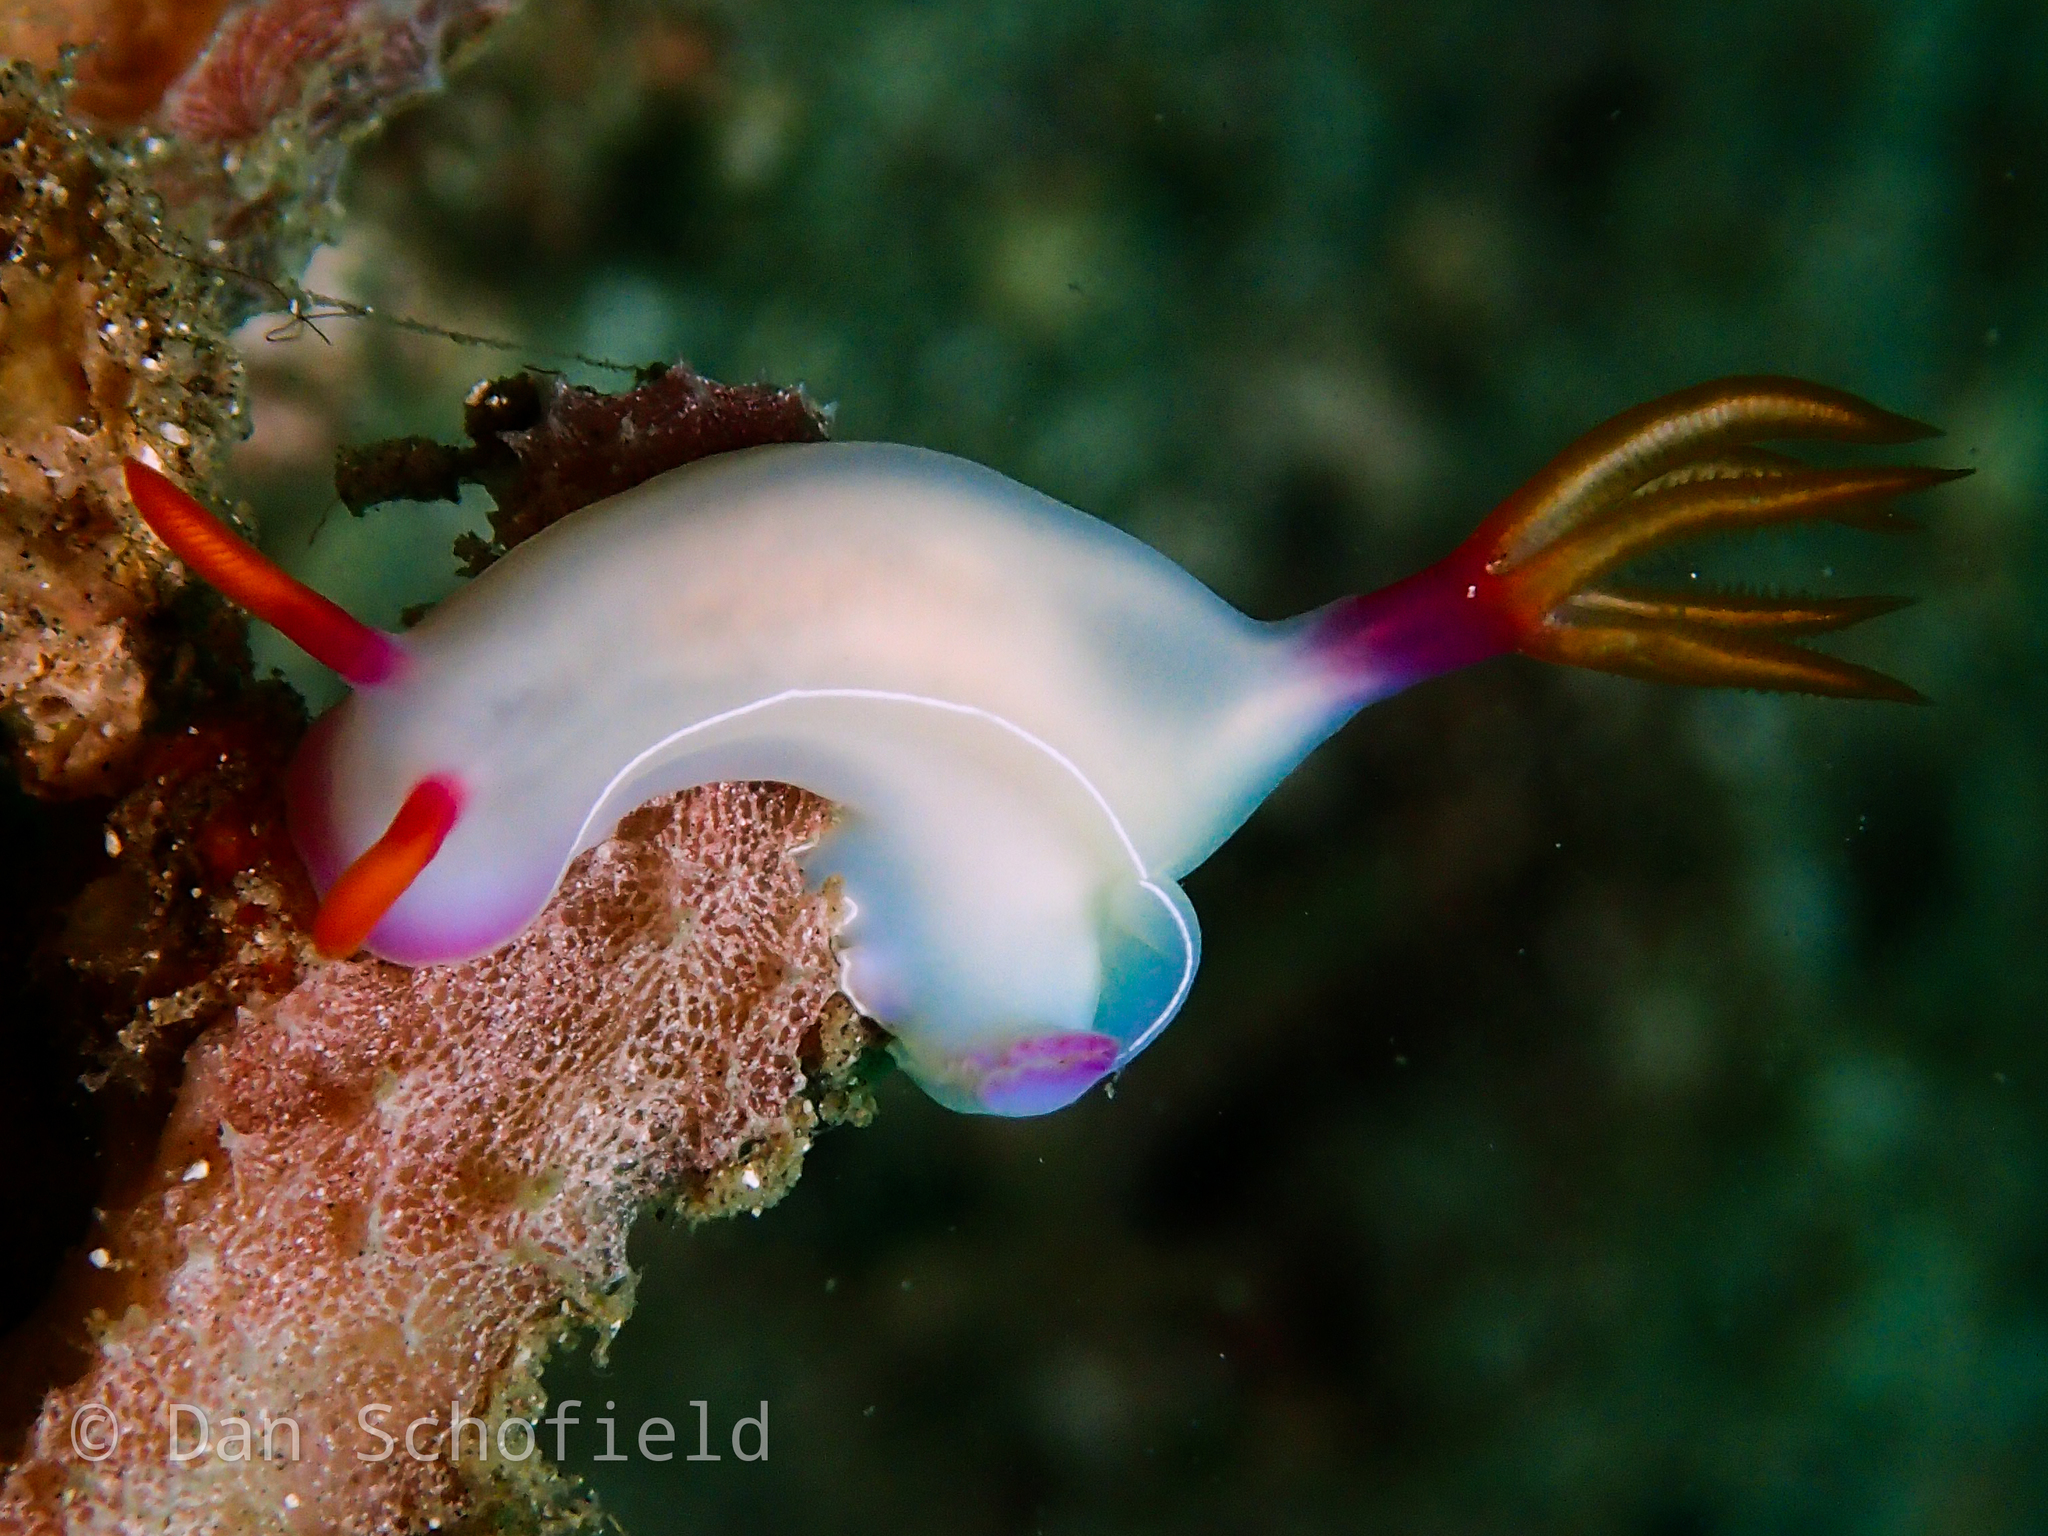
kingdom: Animalia
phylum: Mollusca
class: Gastropoda
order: Nudibranchia
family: Chromodorididae
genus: Hypselodoris
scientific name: Hypselodoris bullockii
